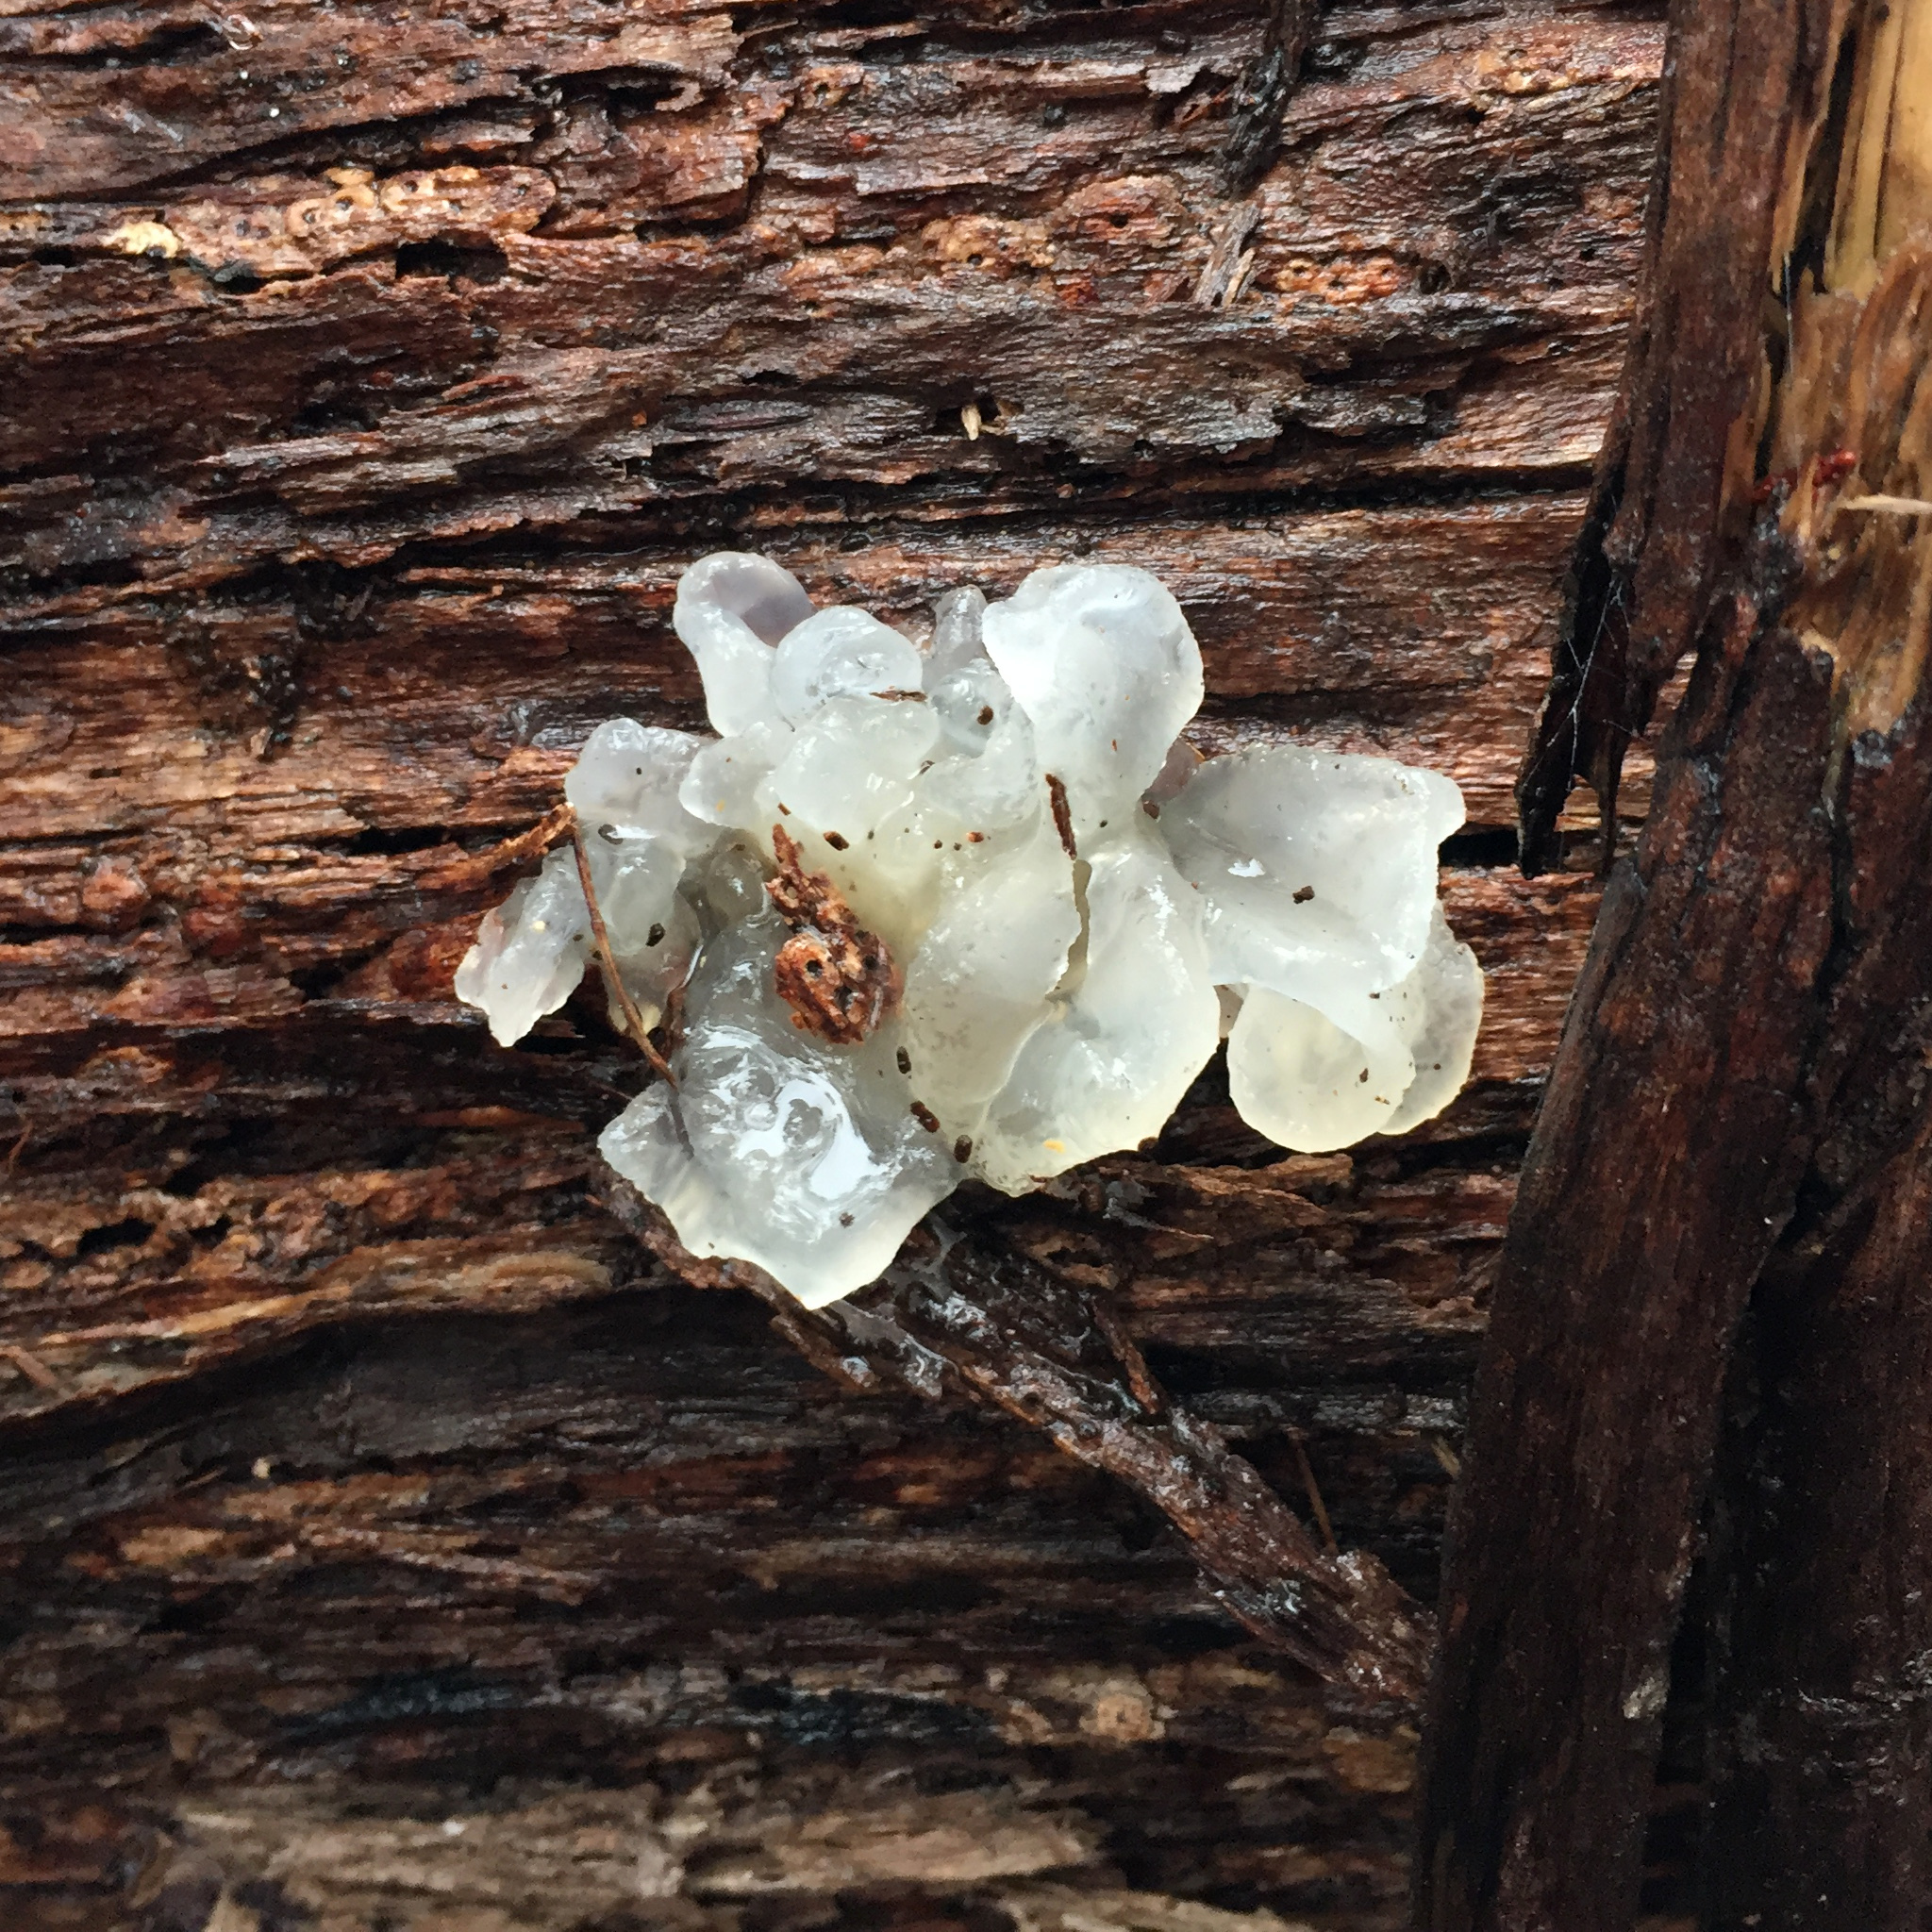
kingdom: Fungi
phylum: Basidiomycota
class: Tremellomycetes
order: Tremellales
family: Tremellaceae
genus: Tremella
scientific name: Tremella fuciformis
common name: Snow fungus
